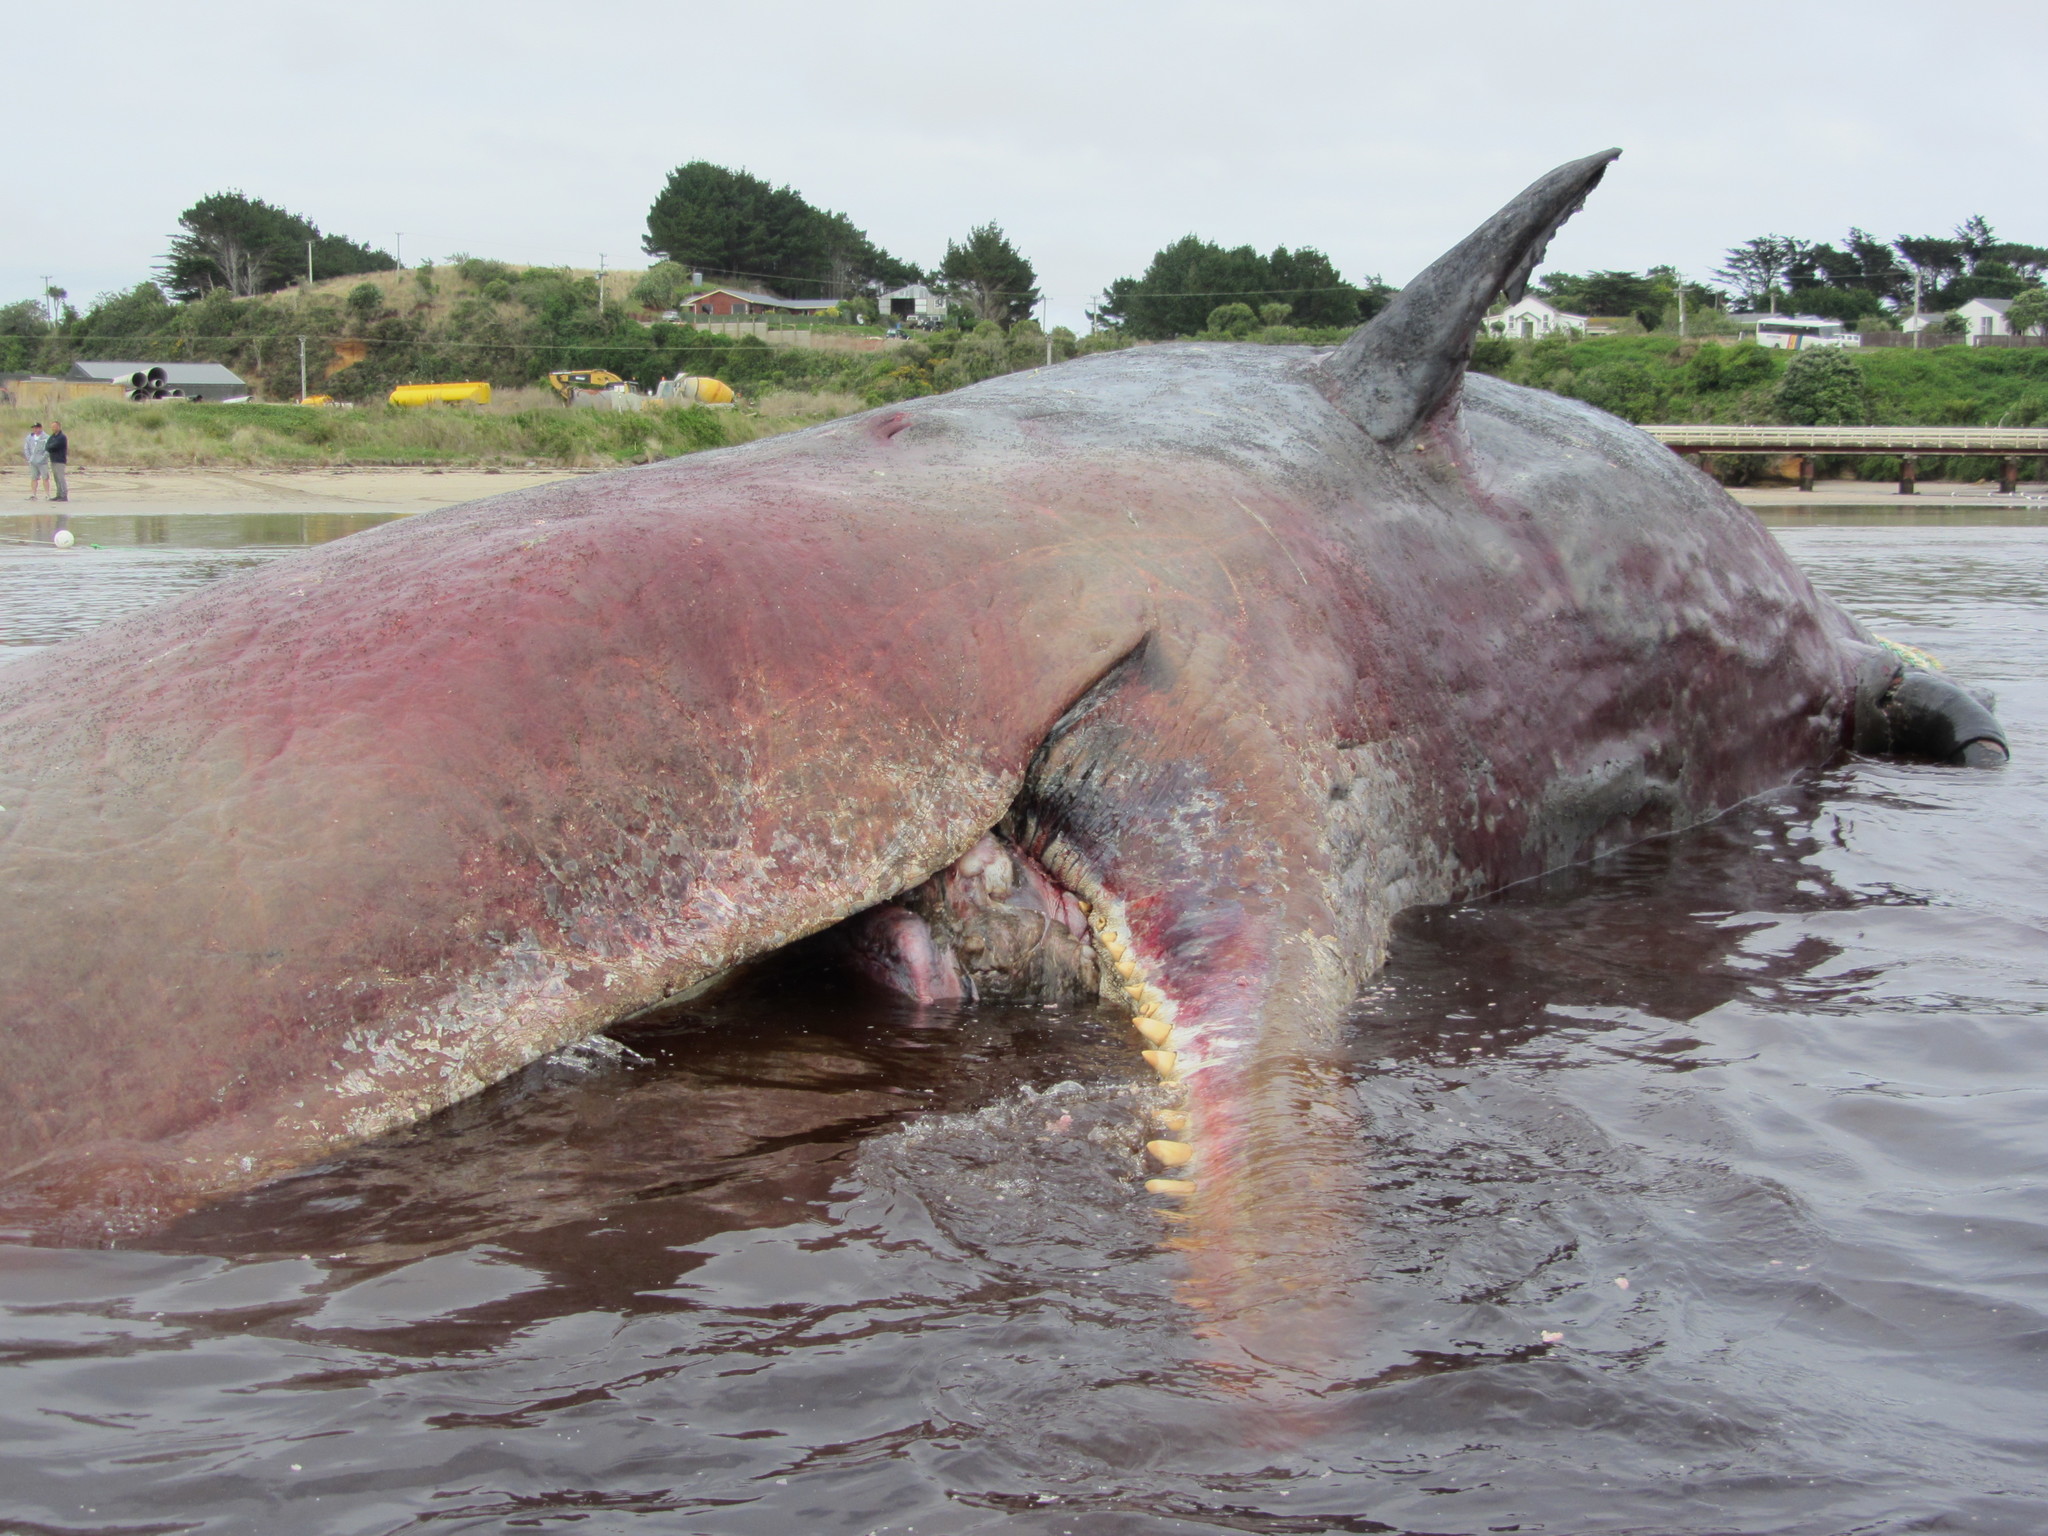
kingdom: Animalia
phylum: Chordata
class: Mammalia
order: Cetacea
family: Physeteridae
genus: Physeter
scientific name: Physeter macrocephalus
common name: Sperm whale
